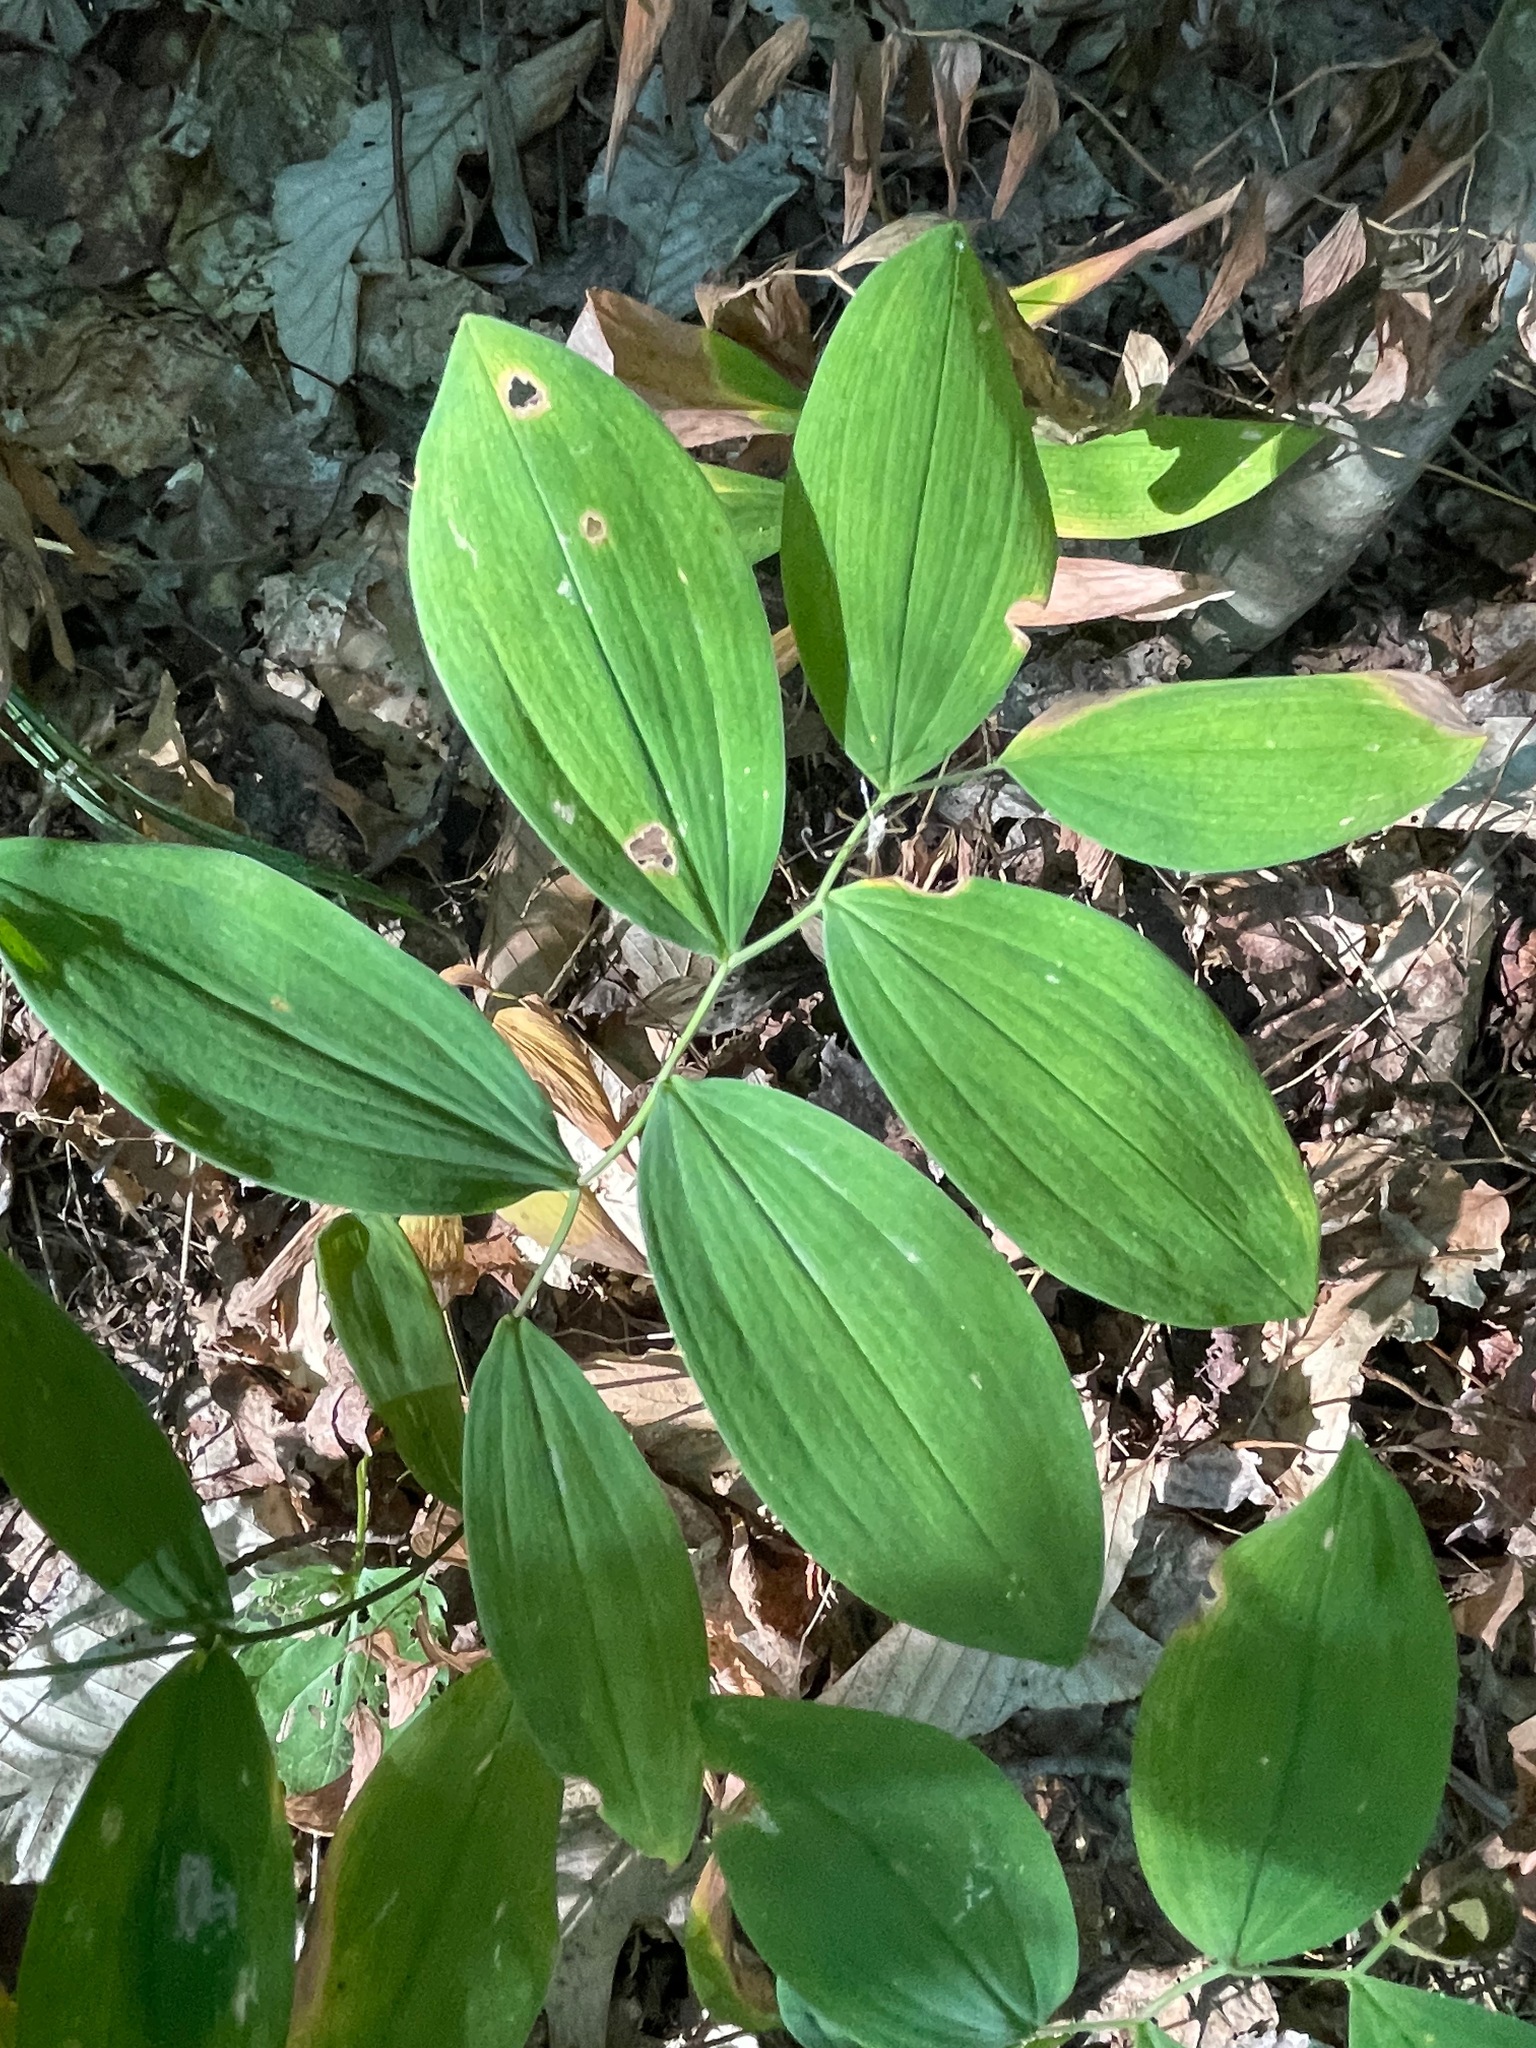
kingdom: Plantae
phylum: Tracheophyta
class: Liliopsida
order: Liliales
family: Colchicaceae
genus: Uvularia
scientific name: Uvularia sessilifolia
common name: Straw-lily
